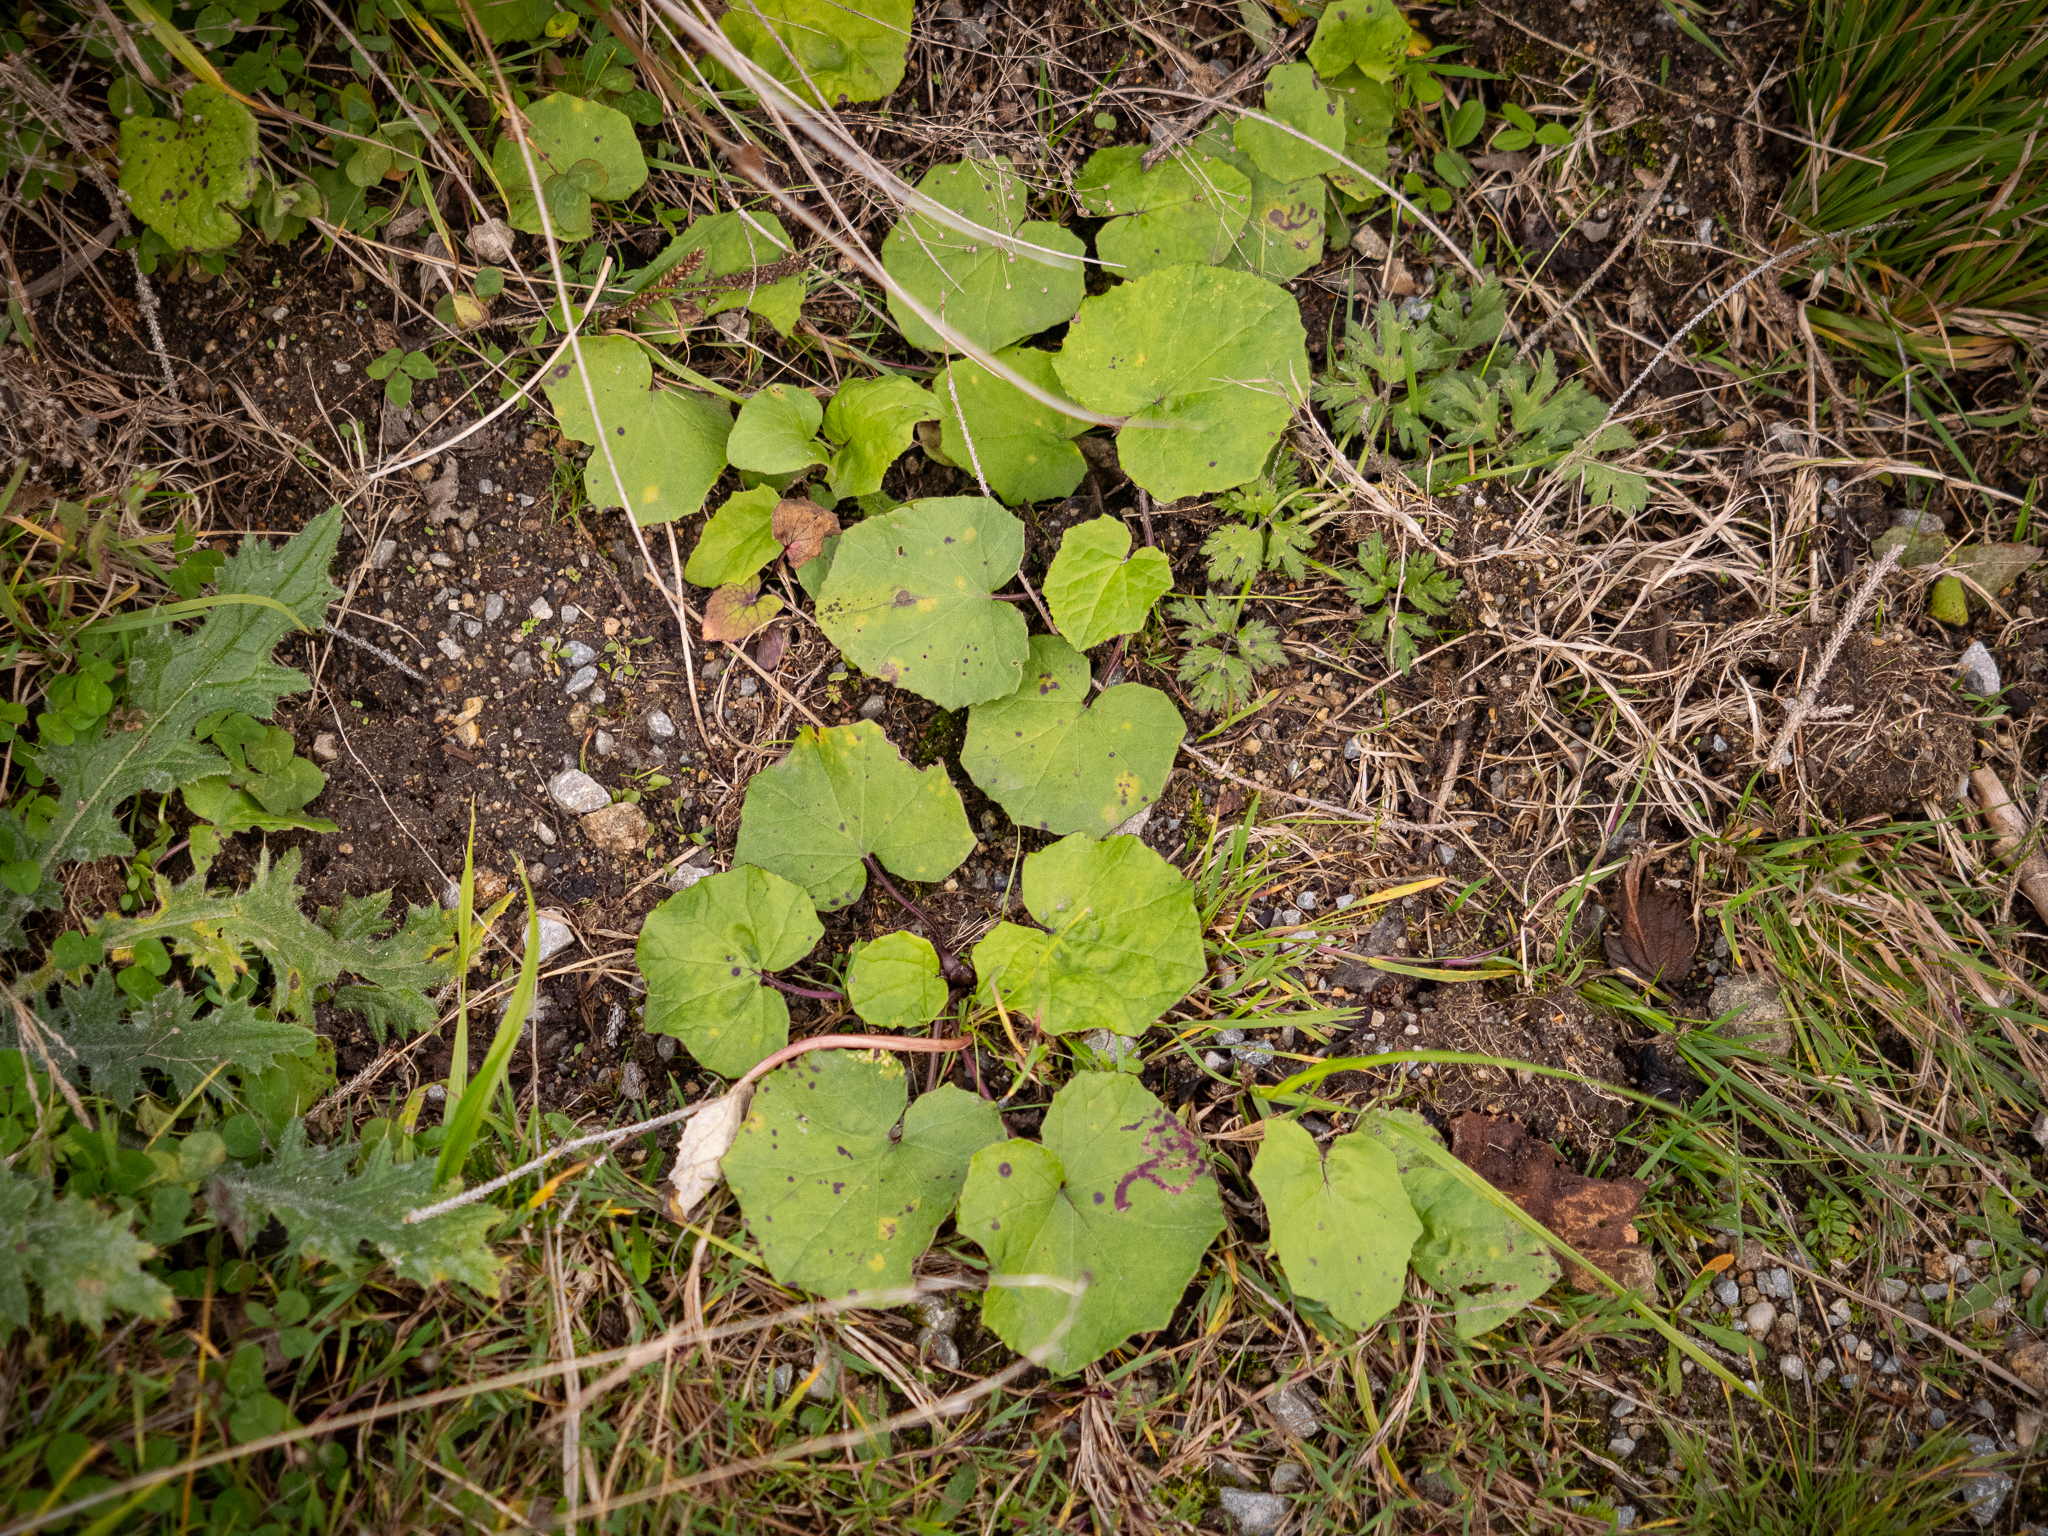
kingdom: Plantae
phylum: Tracheophyta
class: Magnoliopsida
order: Asterales
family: Asteraceae
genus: Tussilago
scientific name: Tussilago farfara
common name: Coltsfoot
